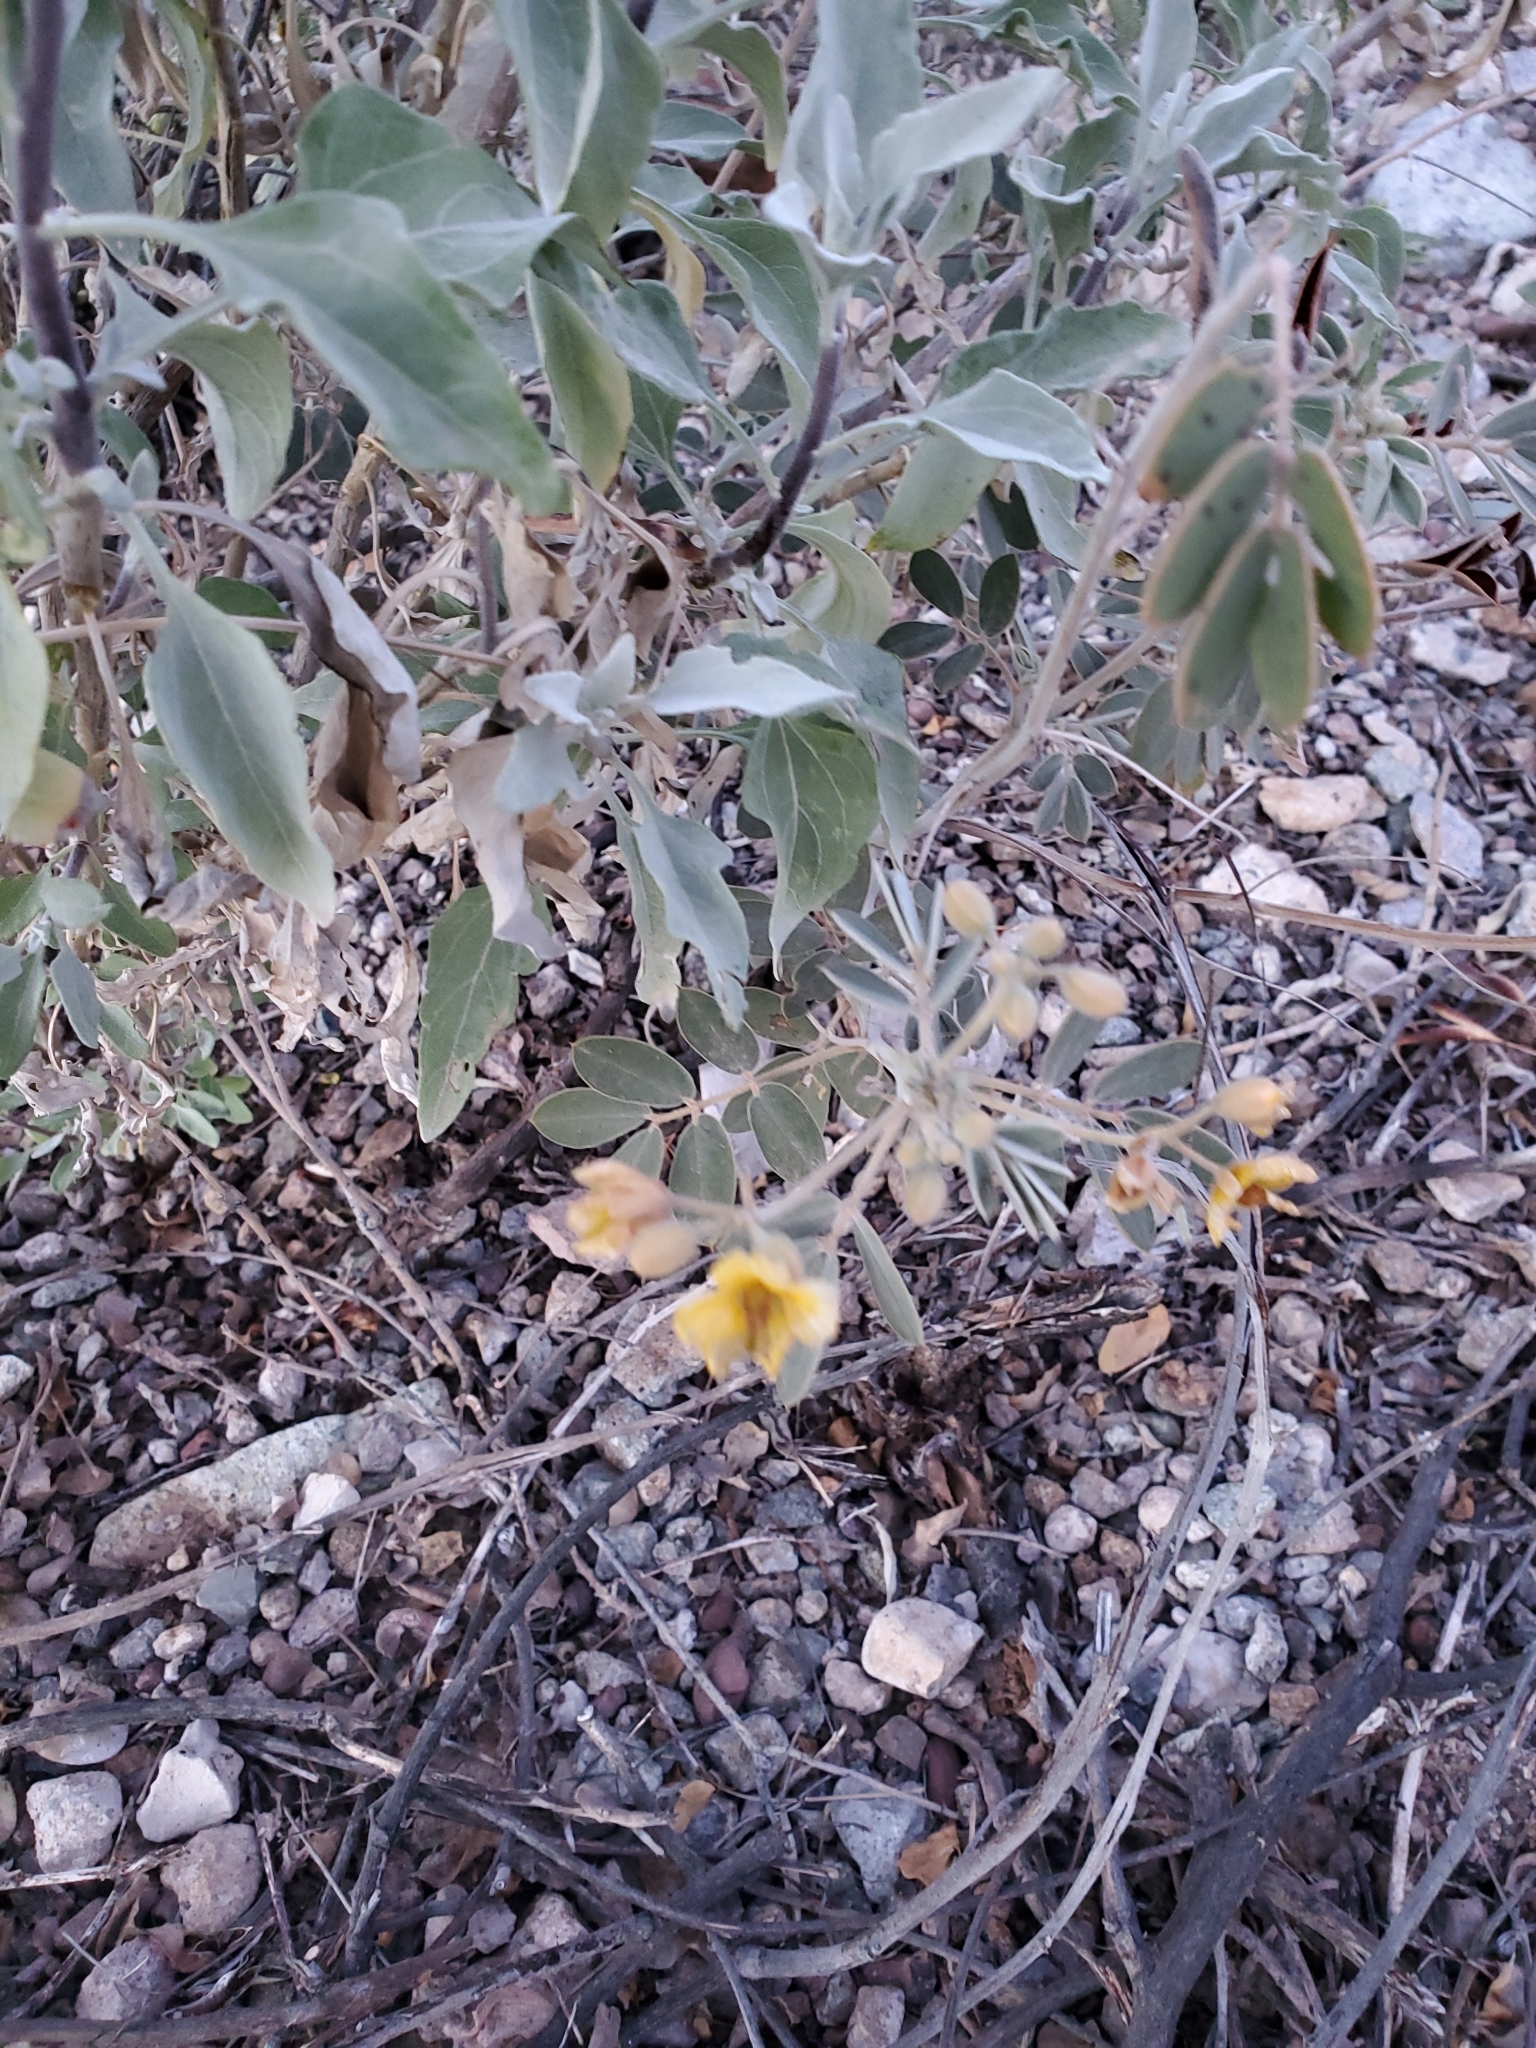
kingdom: Plantae
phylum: Tracheophyta
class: Magnoliopsida
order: Fabales
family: Fabaceae
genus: Senna
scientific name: Senna covesii
